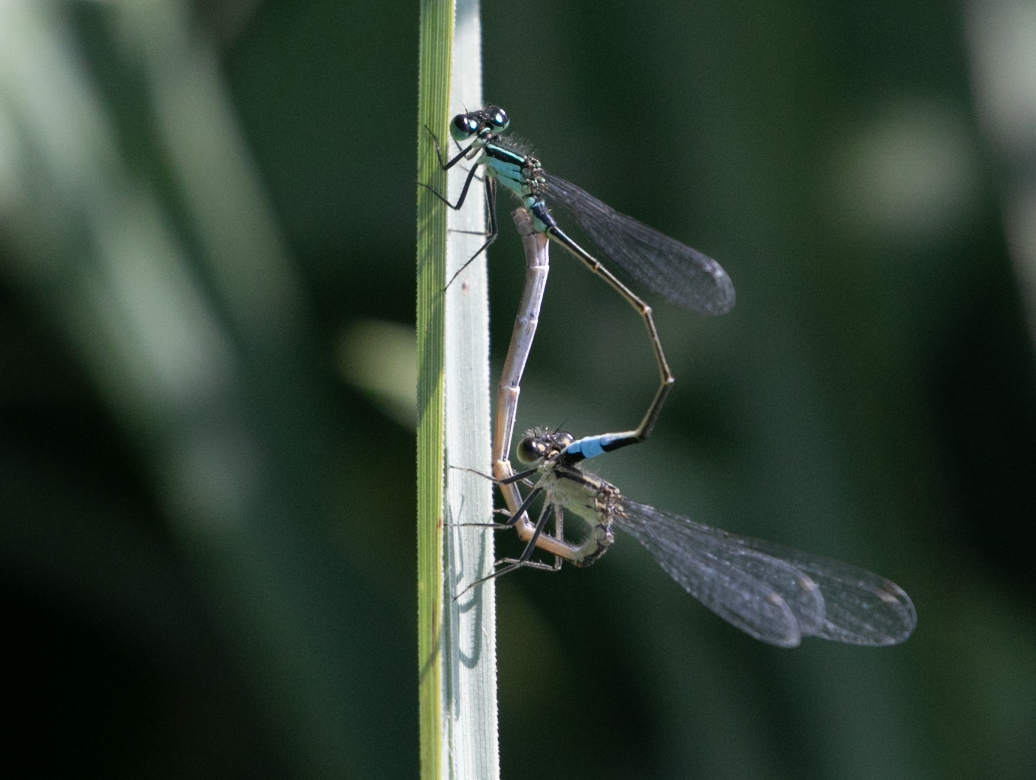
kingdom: Animalia
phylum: Arthropoda
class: Insecta
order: Odonata
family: Coenagrionidae
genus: Ischnura
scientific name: Ischnura elegans
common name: Blue-tailed damselfly
